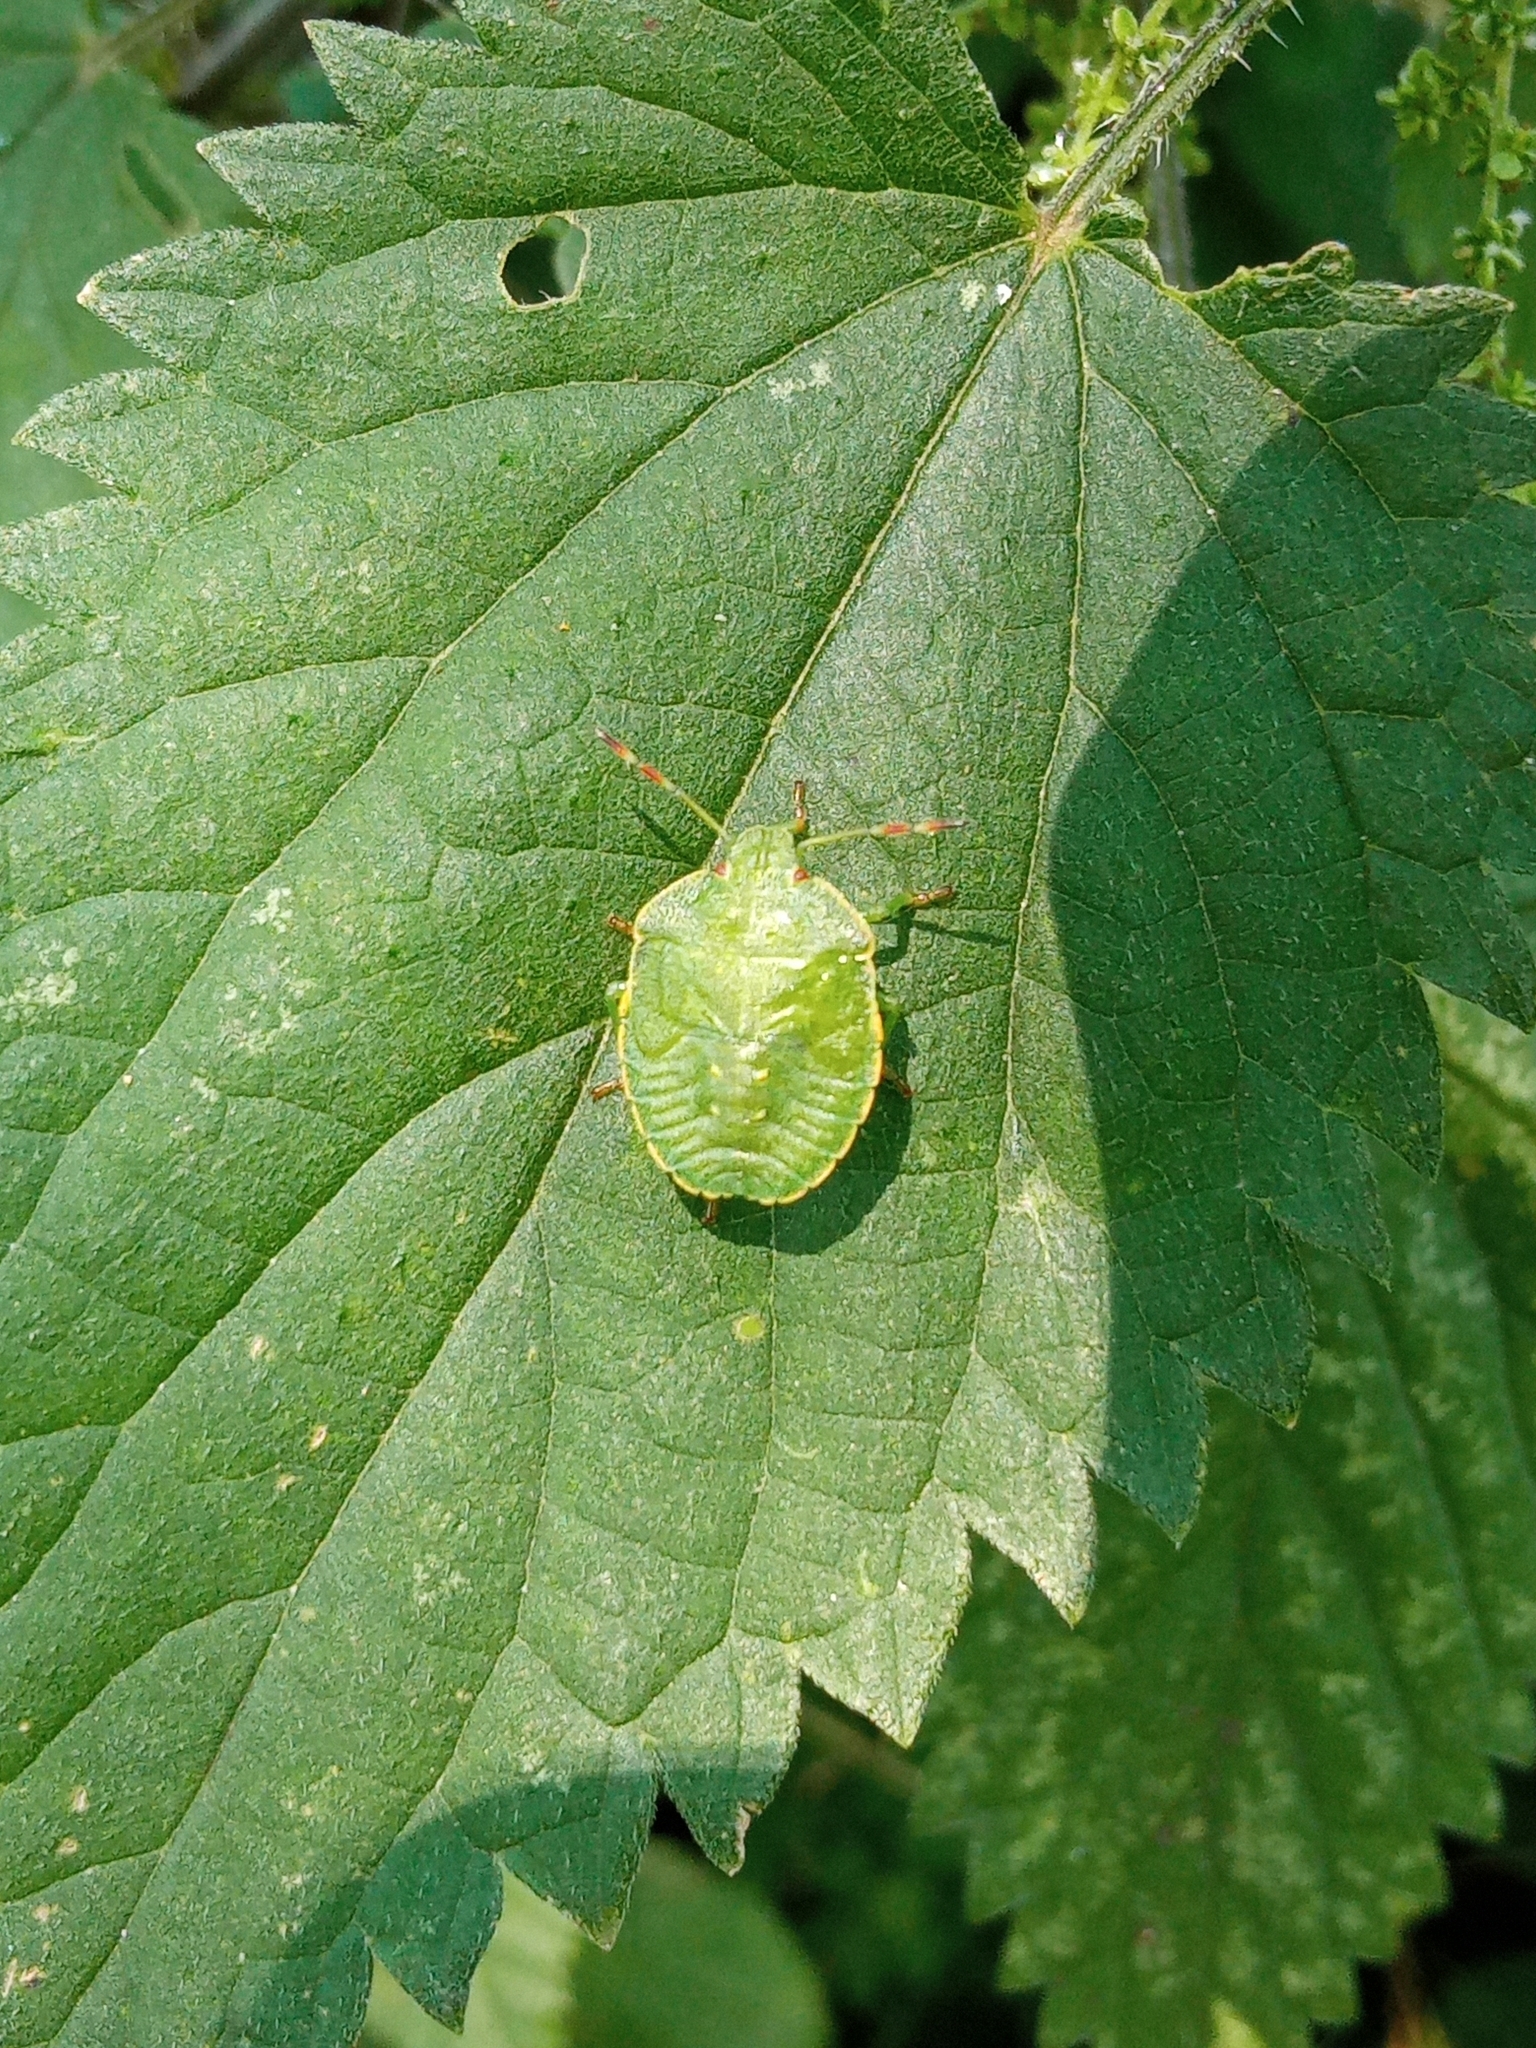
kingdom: Animalia
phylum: Arthropoda
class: Insecta
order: Hemiptera
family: Pentatomidae
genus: Palomena
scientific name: Palomena prasina
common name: Green shieldbug
